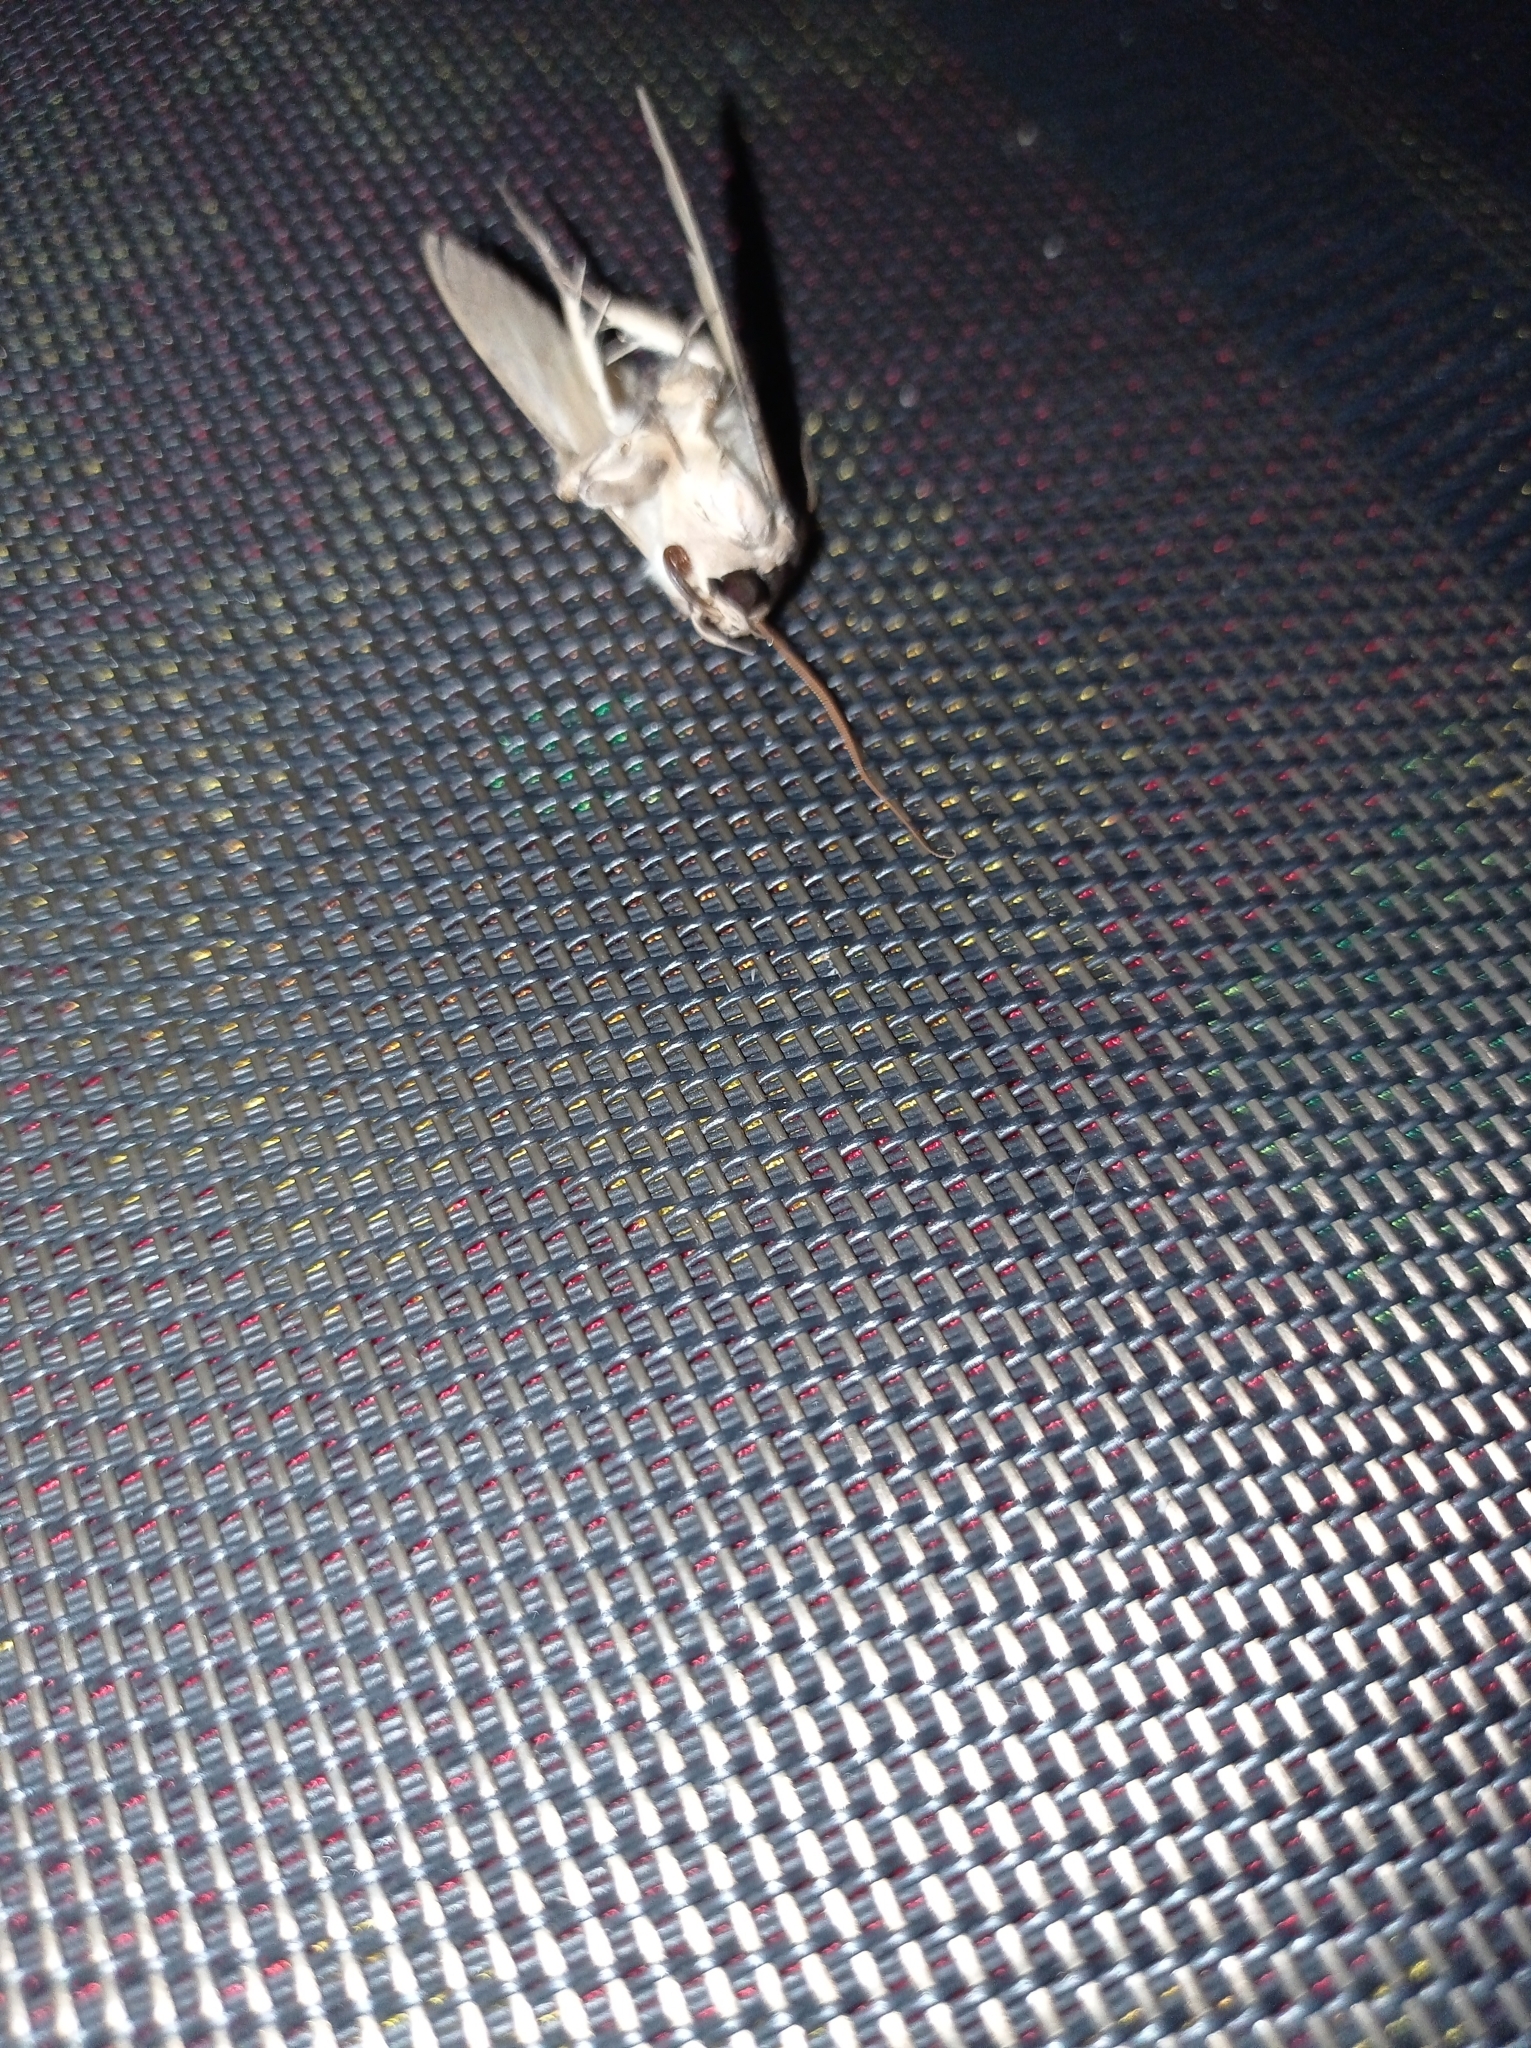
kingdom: Animalia
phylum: Arthropoda
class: Insecta
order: Lepidoptera
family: Erebidae
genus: Sphingomorpha
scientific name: Sphingomorpha chlorea
